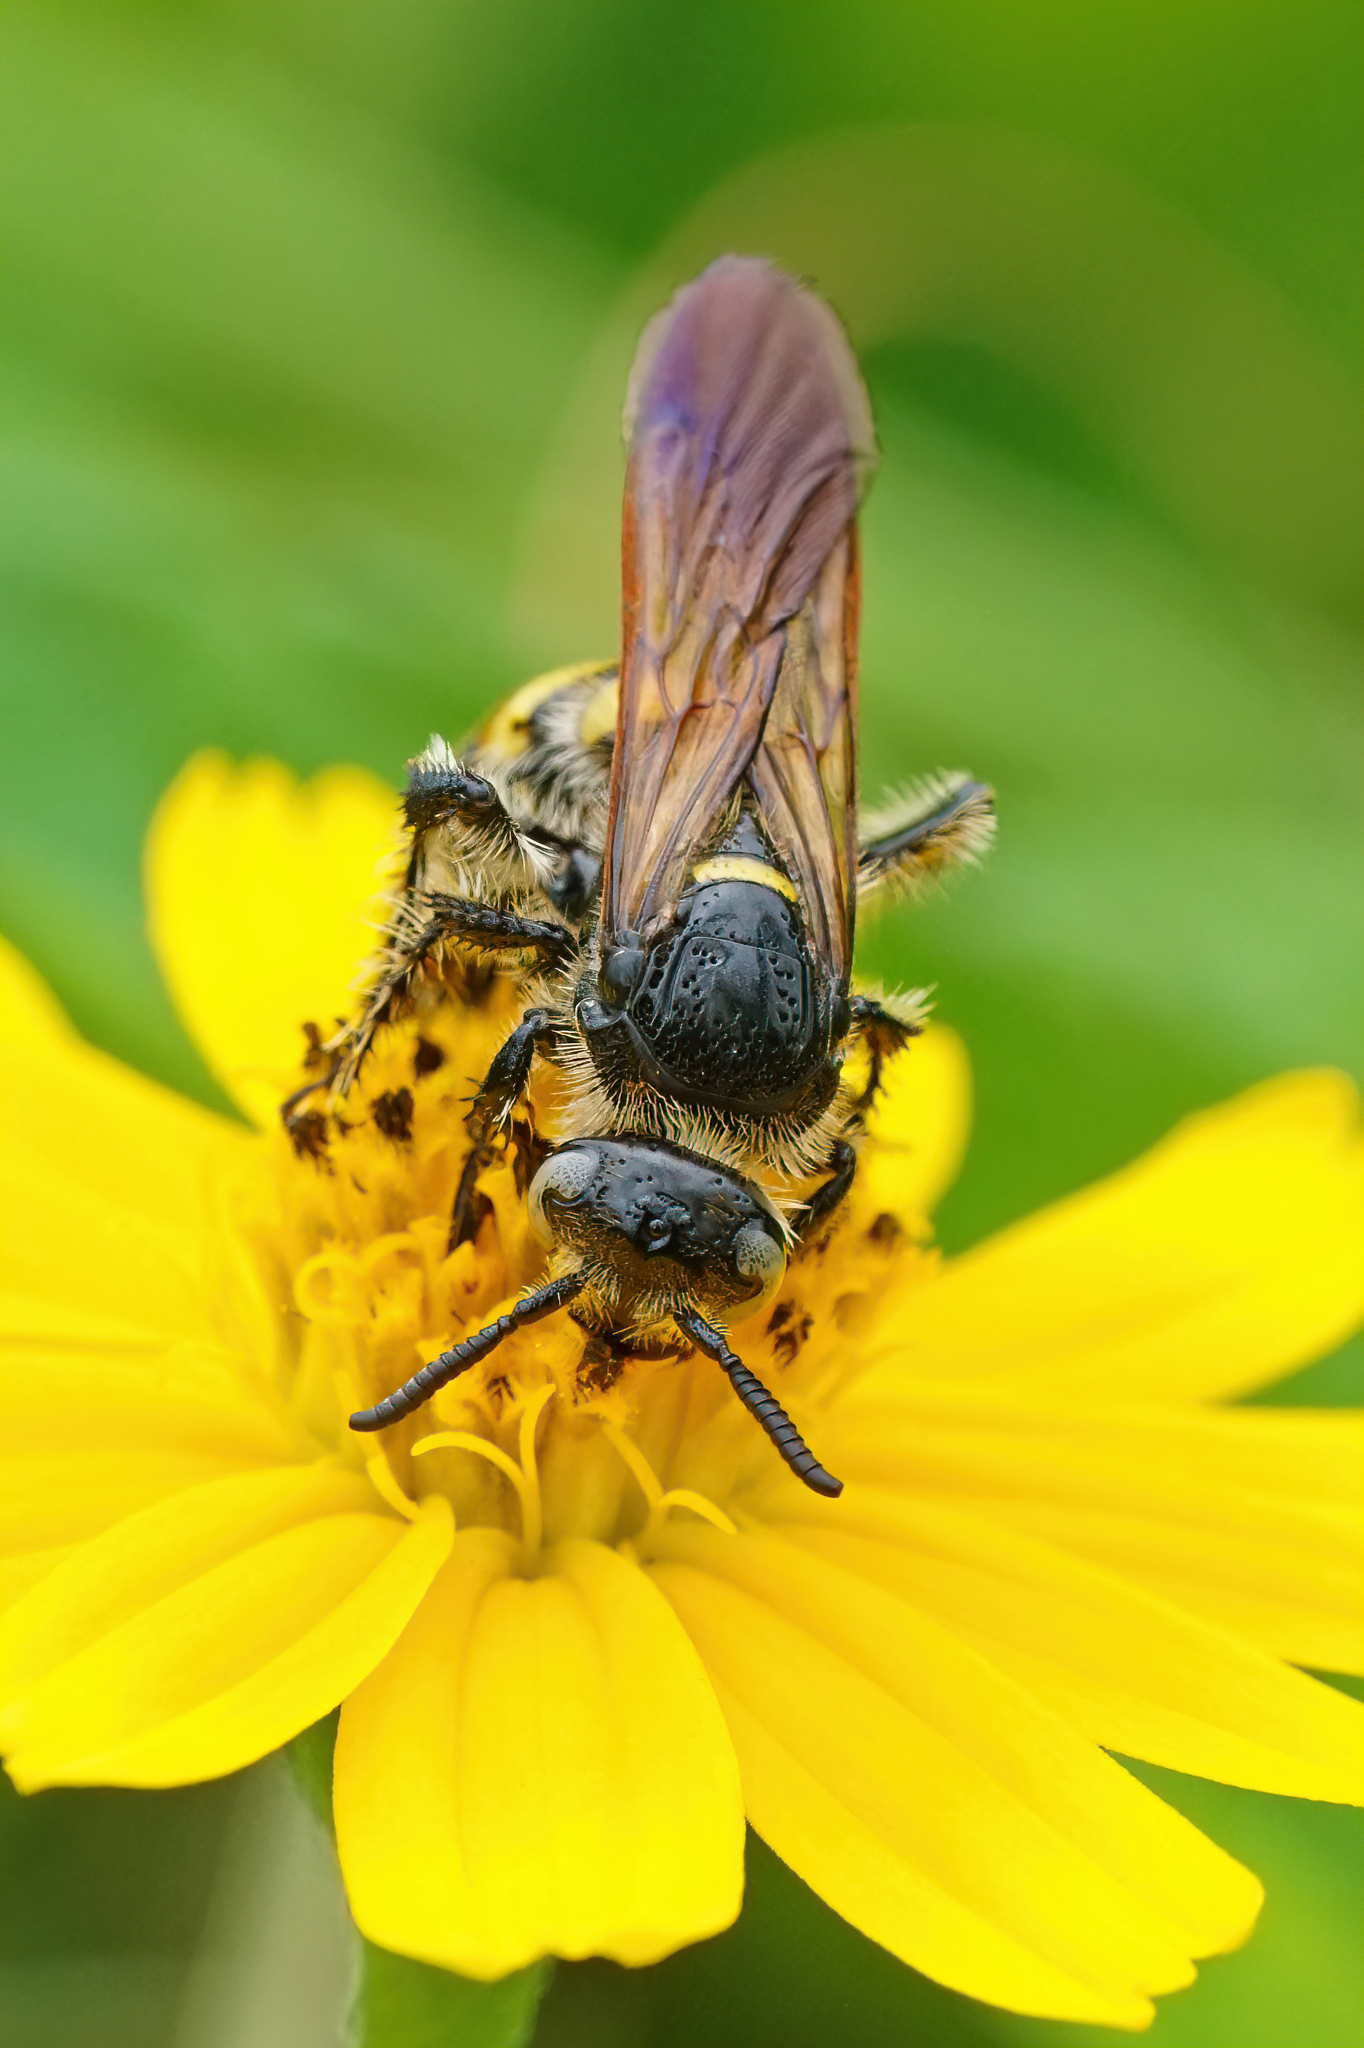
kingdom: Animalia
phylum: Arthropoda
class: Insecta
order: Hymenoptera
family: Scoliidae
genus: Dielis
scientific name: Dielis
